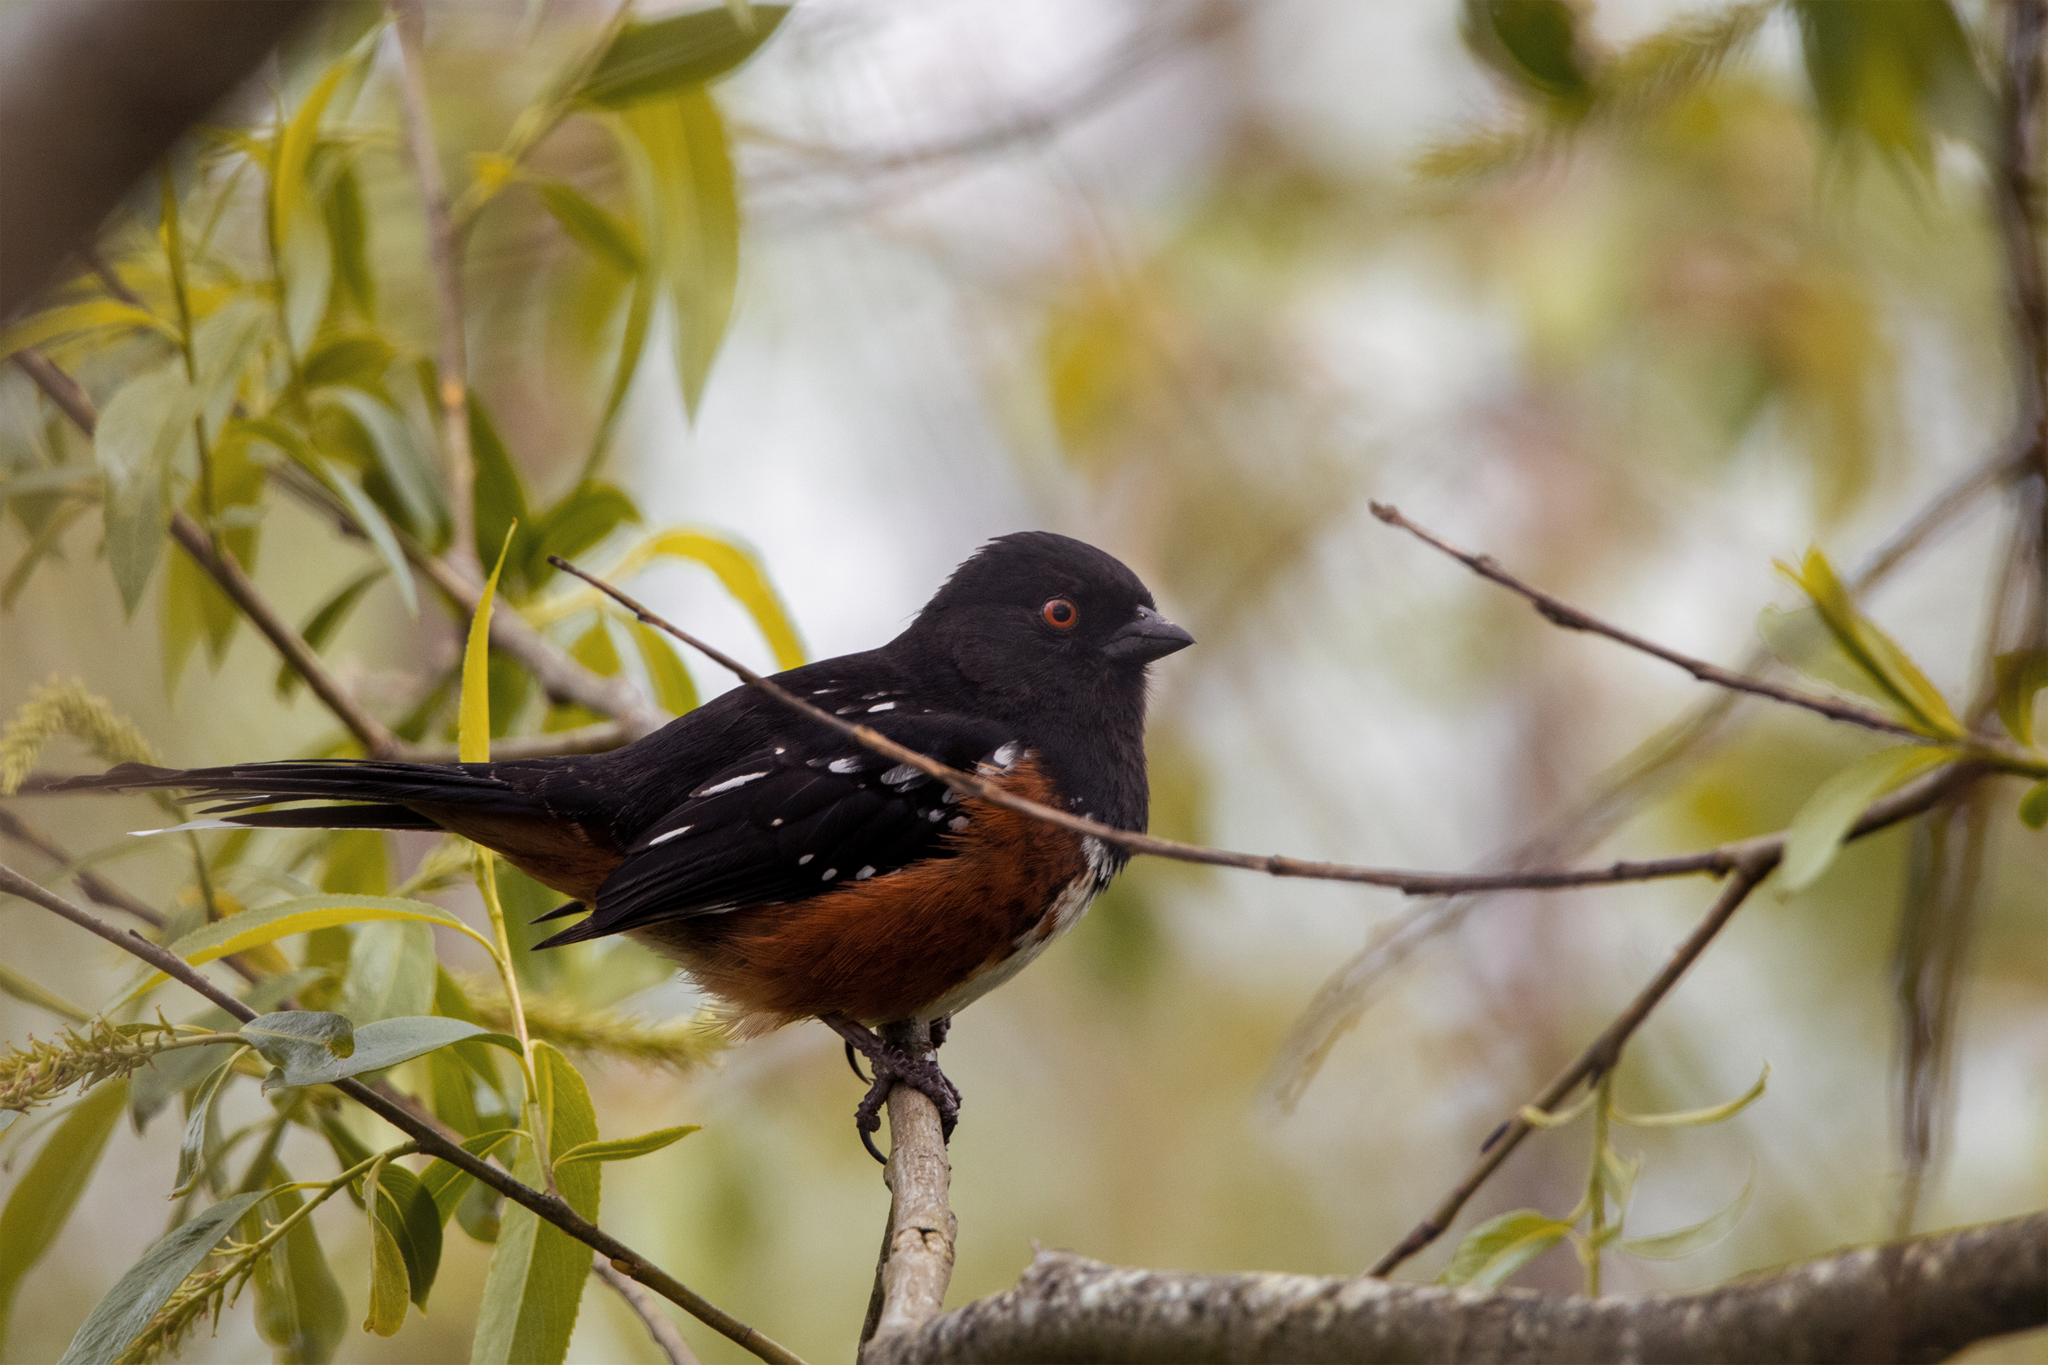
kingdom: Animalia
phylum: Chordata
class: Aves
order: Passeriformes
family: Passerellidae
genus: Pipilo
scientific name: Pipilo maculatus
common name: Spotted towhee
